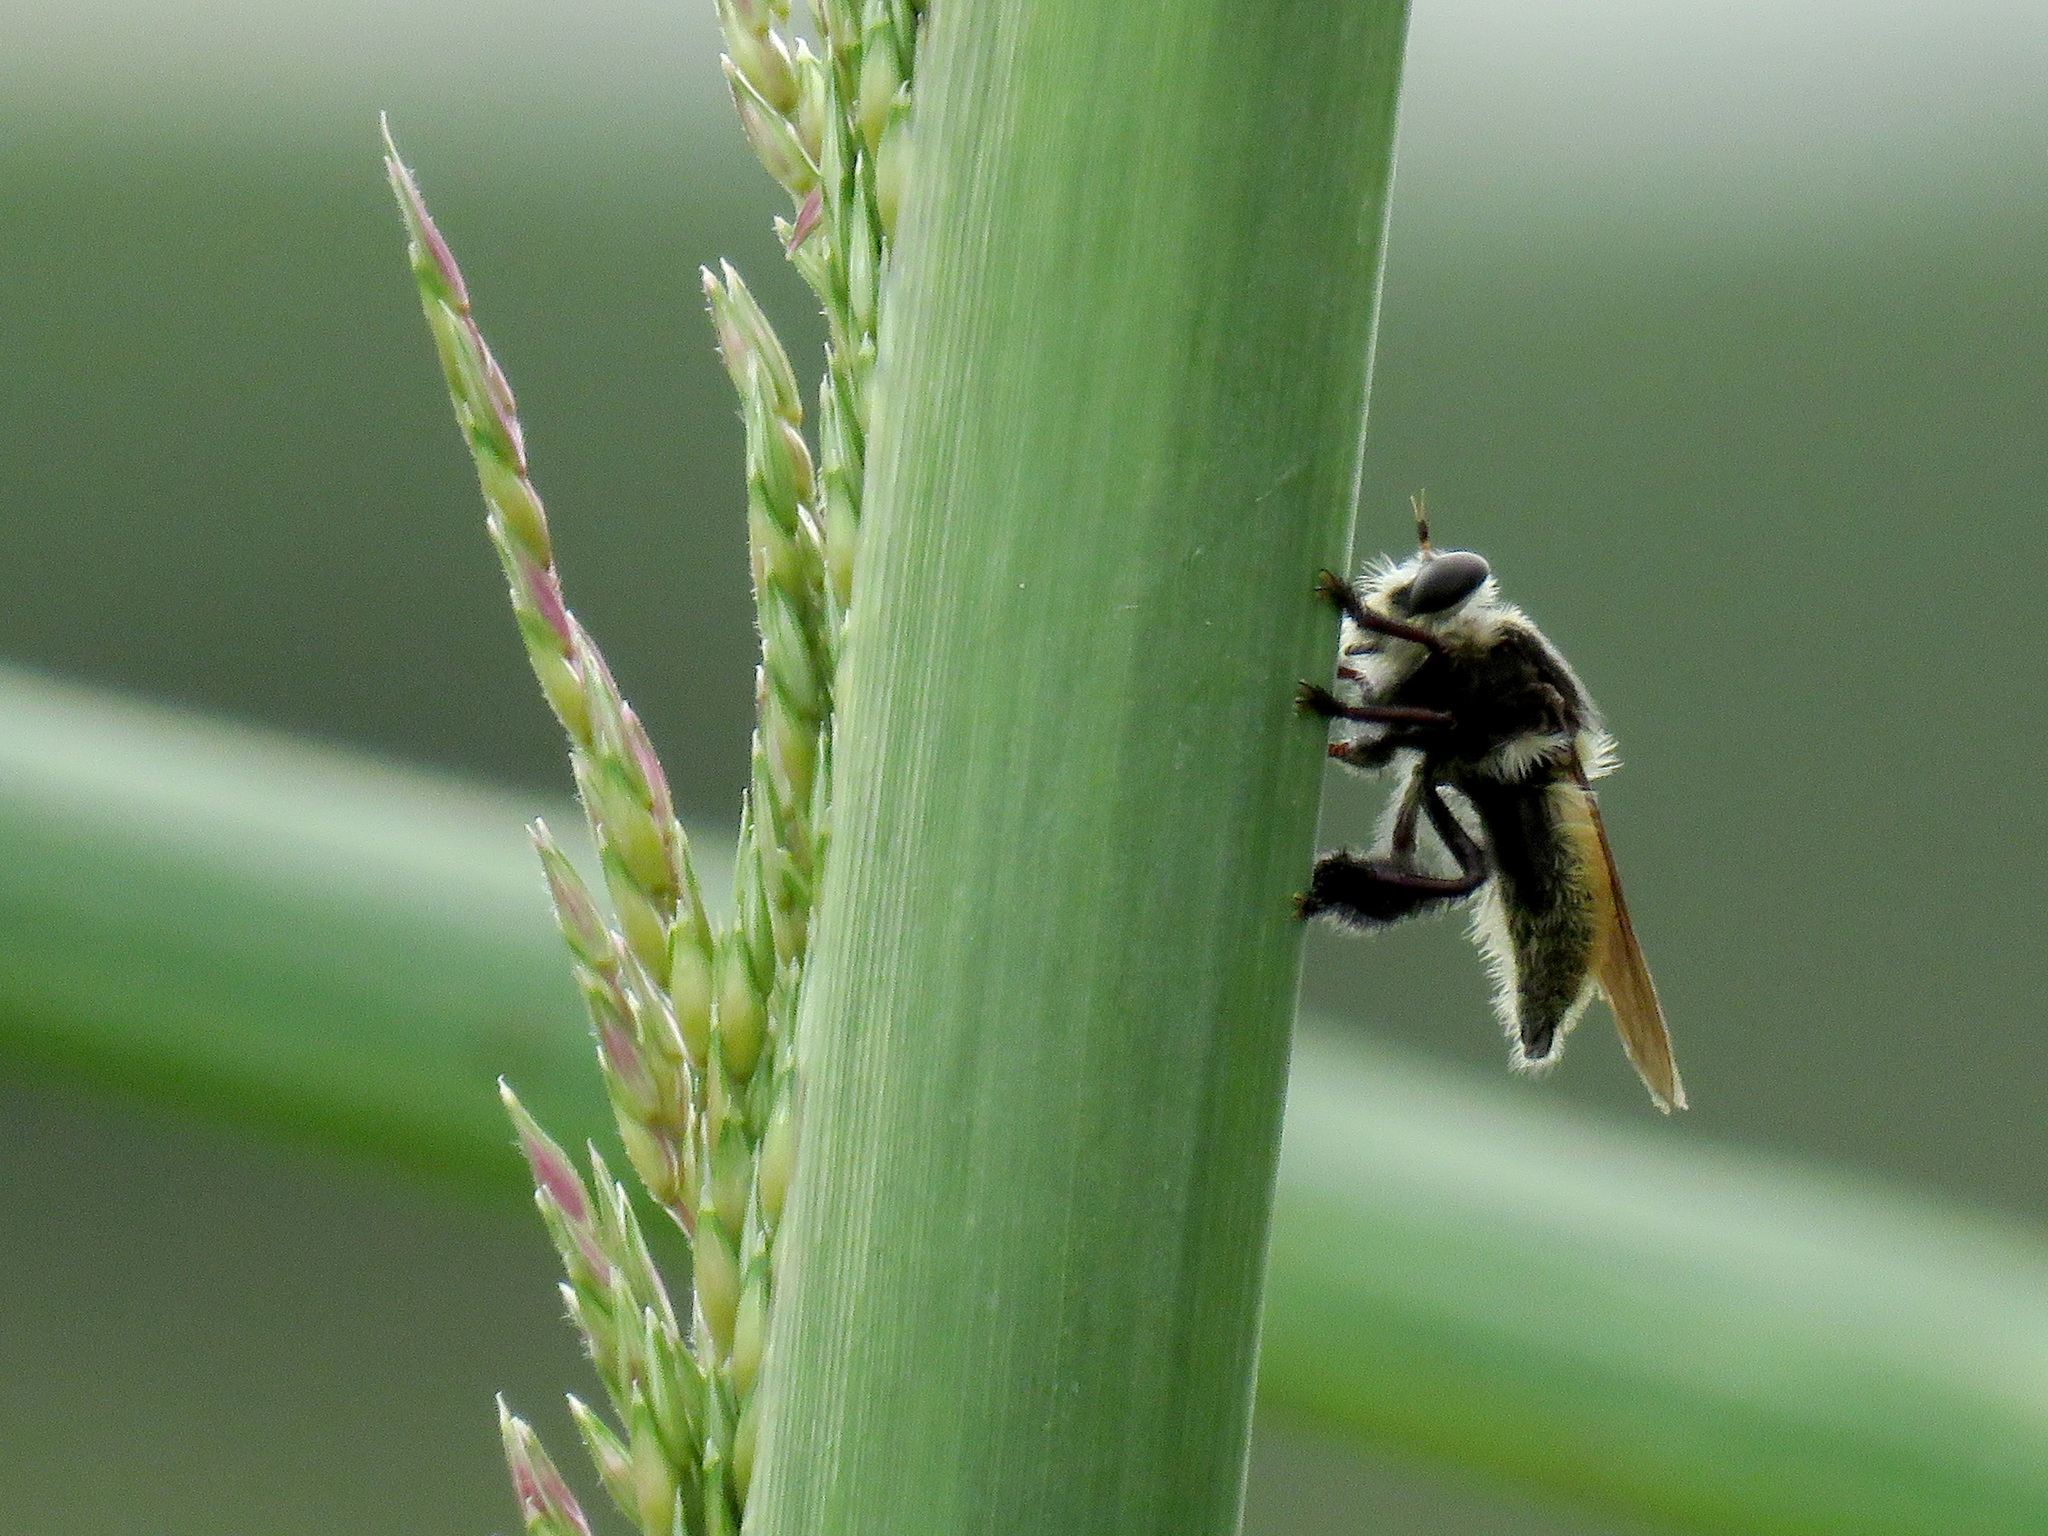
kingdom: Animalia
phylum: Arthropoda
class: Insecta
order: Diptera
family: Asilidae
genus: Mallophora
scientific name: Mallophora fautrix
